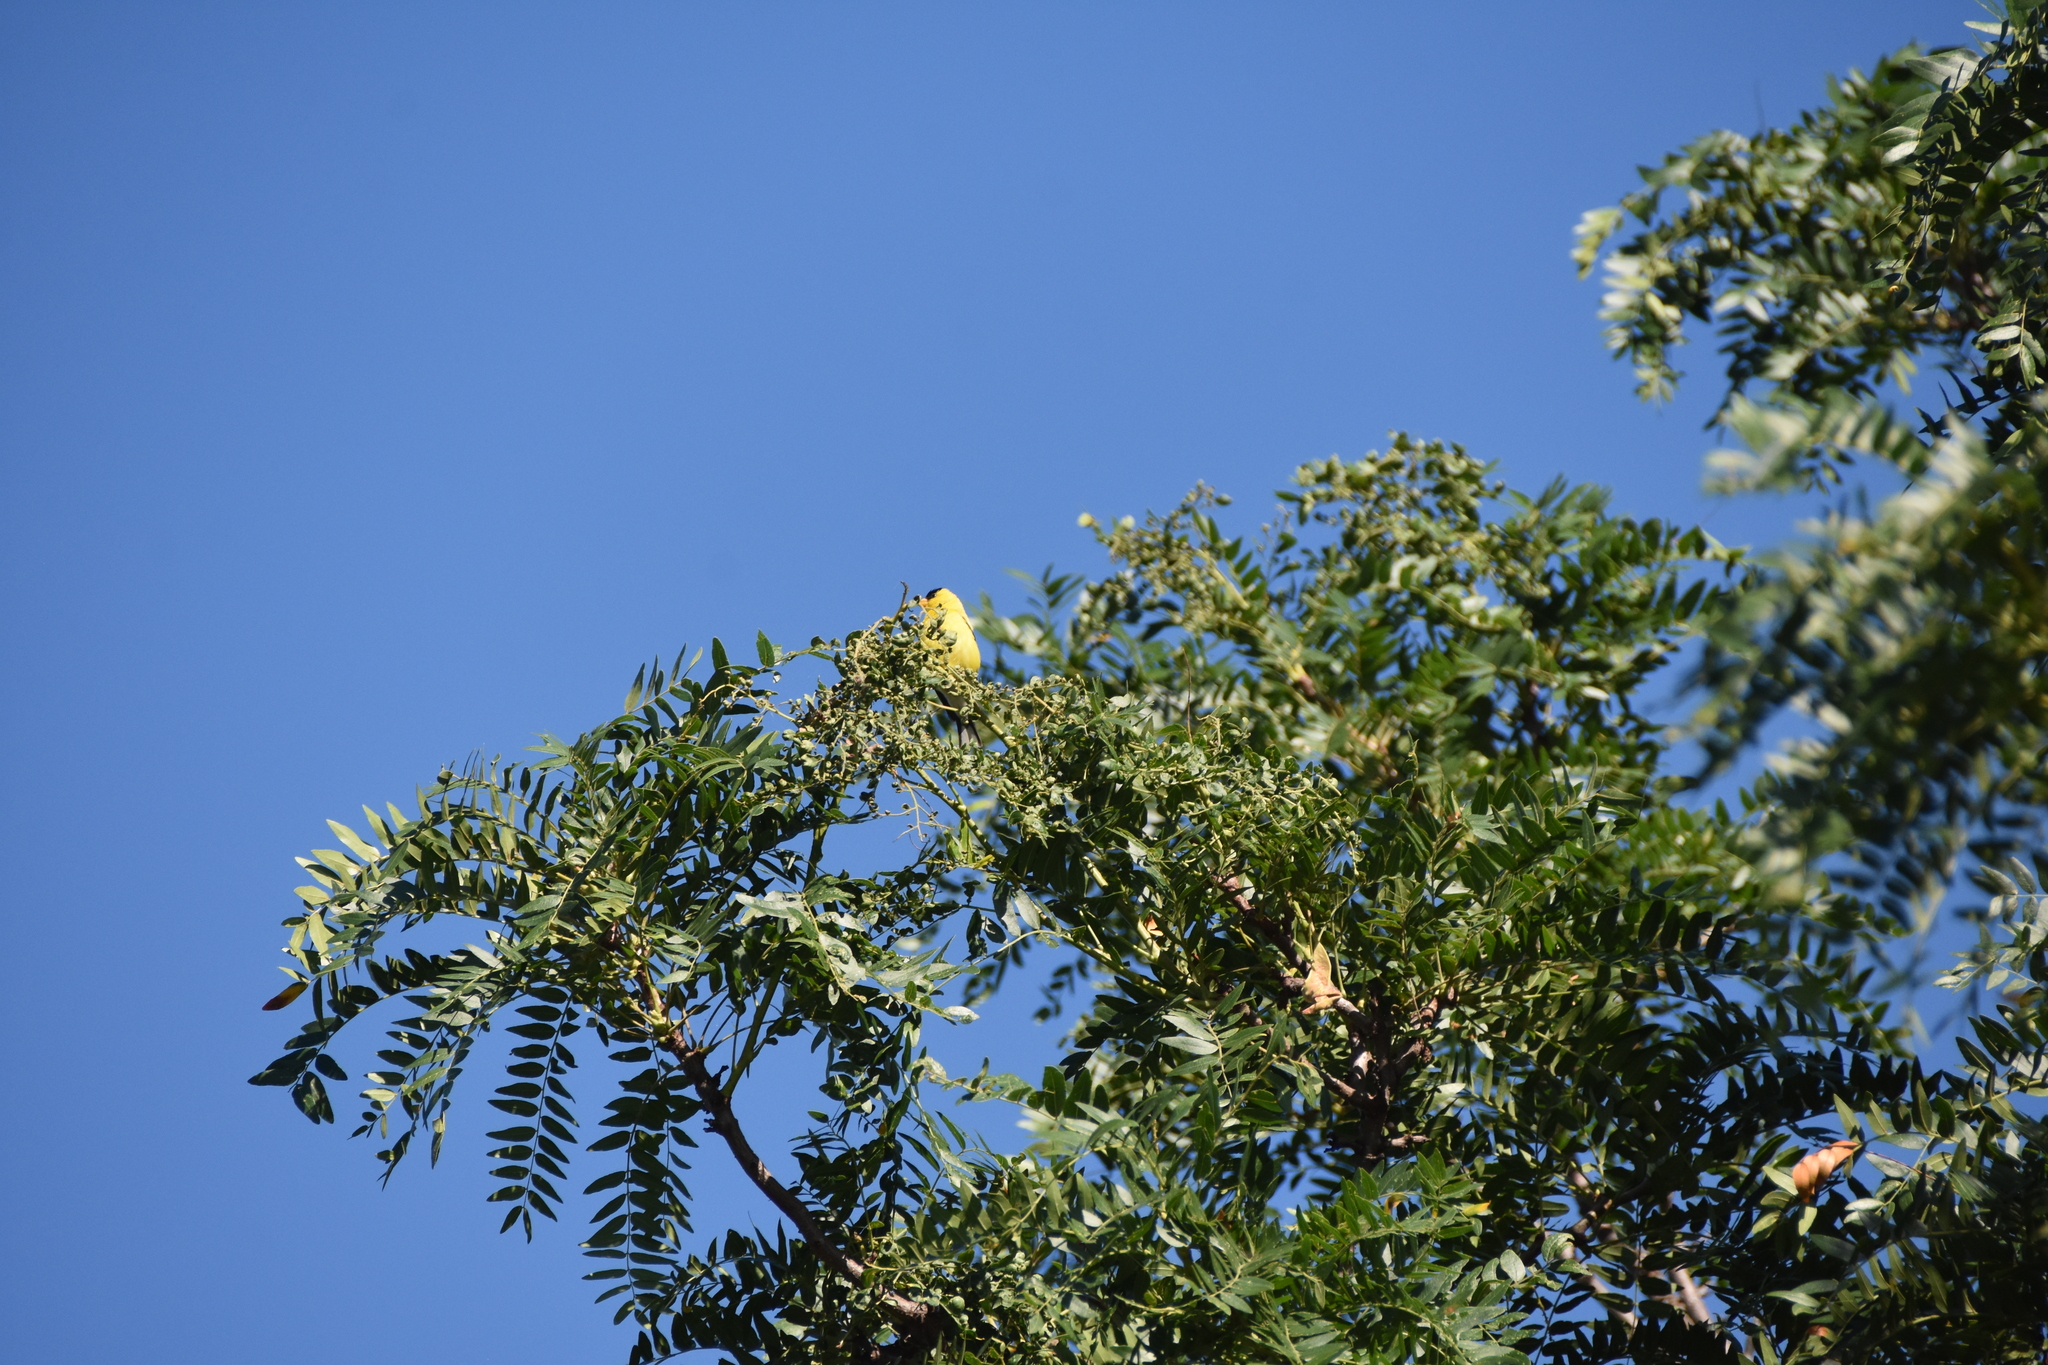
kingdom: Animalia
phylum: Chordata
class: Aves
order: Passeriformes
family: Fringillidae
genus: Spinus
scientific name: Spinus tristis
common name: American goldfinch
